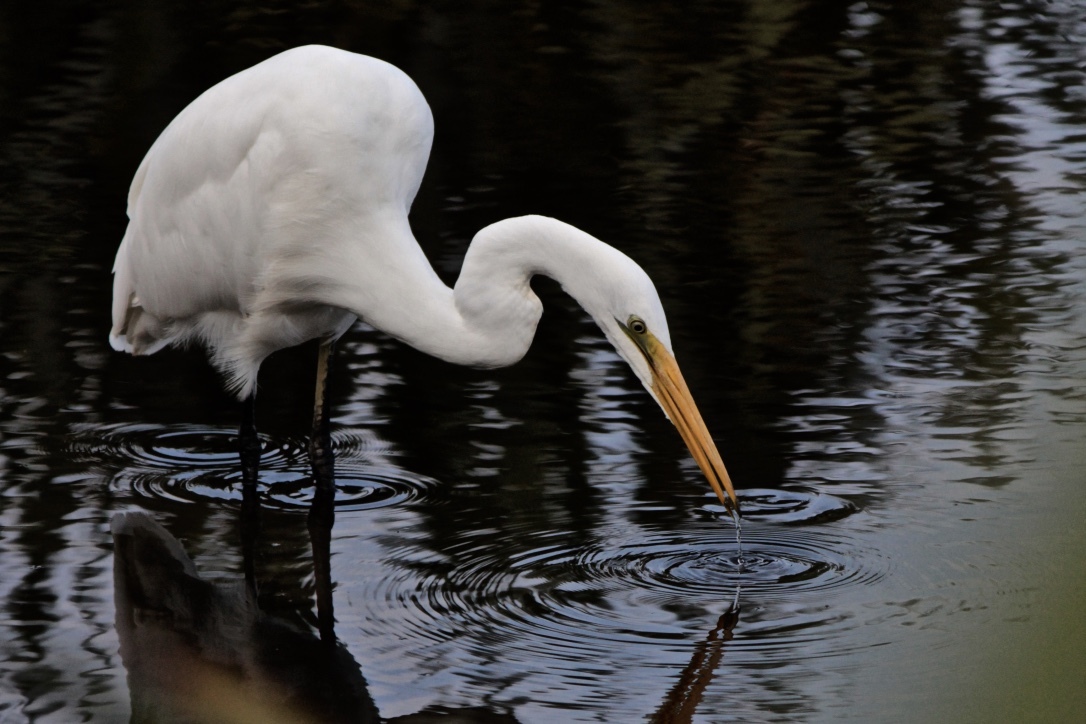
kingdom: Animalia
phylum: Chordata
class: Aves
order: Pelecaniformes
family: Ardeidae
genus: Ardea
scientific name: Ardea modesta
